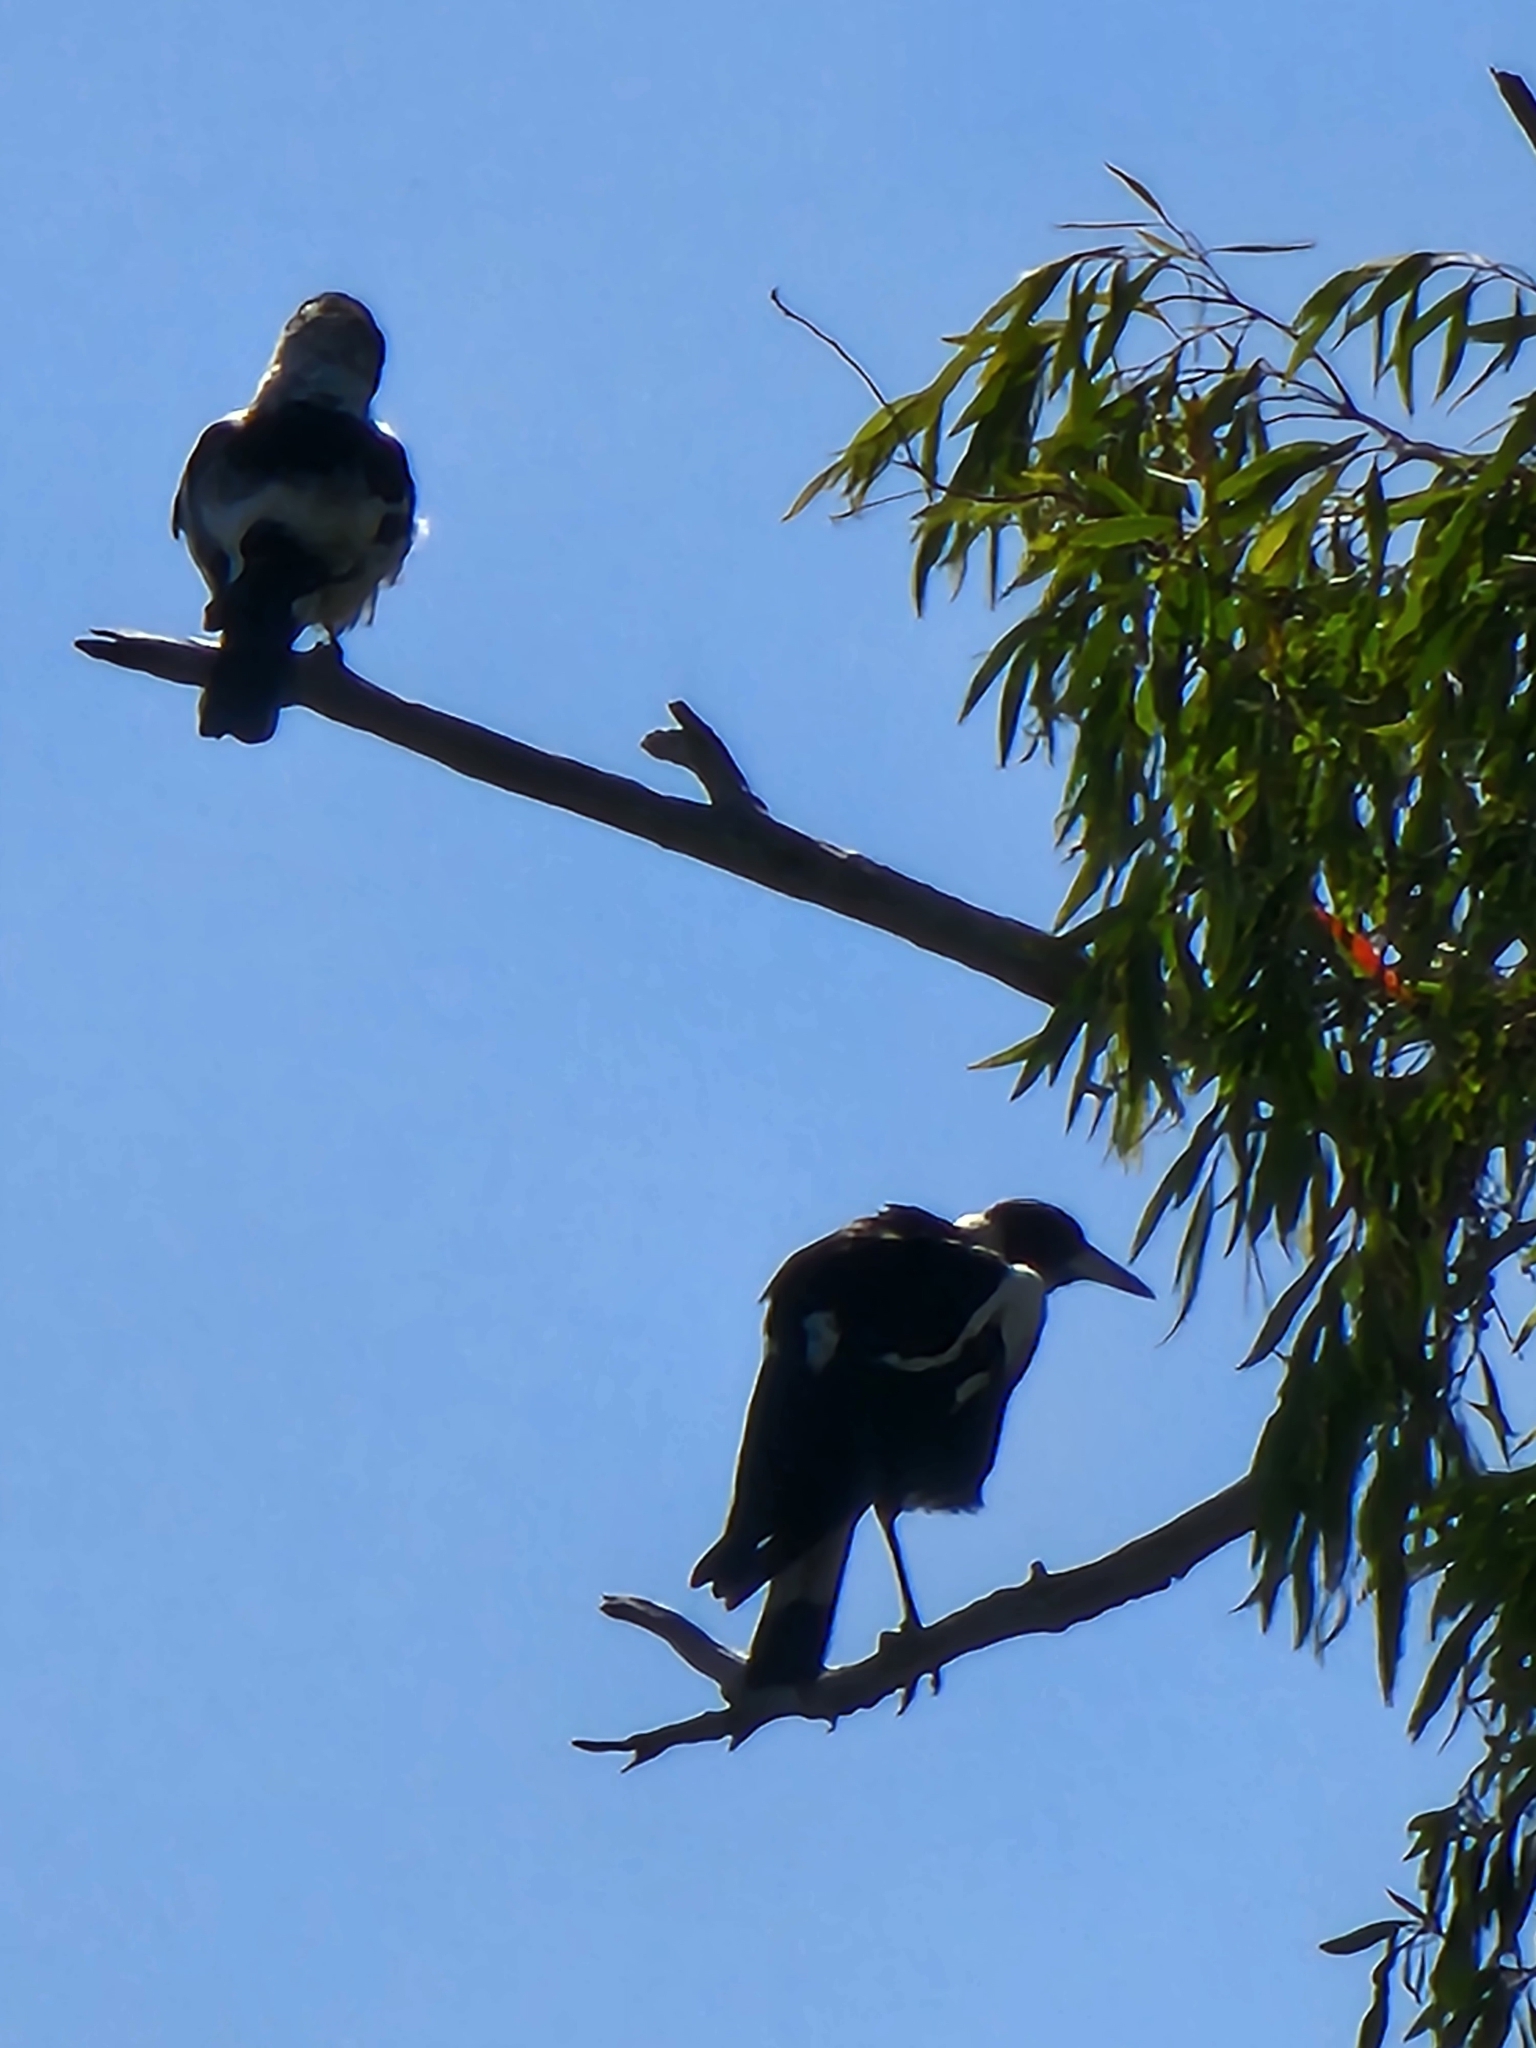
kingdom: Animalia
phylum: Chordata
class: Aves
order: Passeriformes
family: Cracticidae
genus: Gymnorhina
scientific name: Gymnorhina tibicen
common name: Australian magpie
